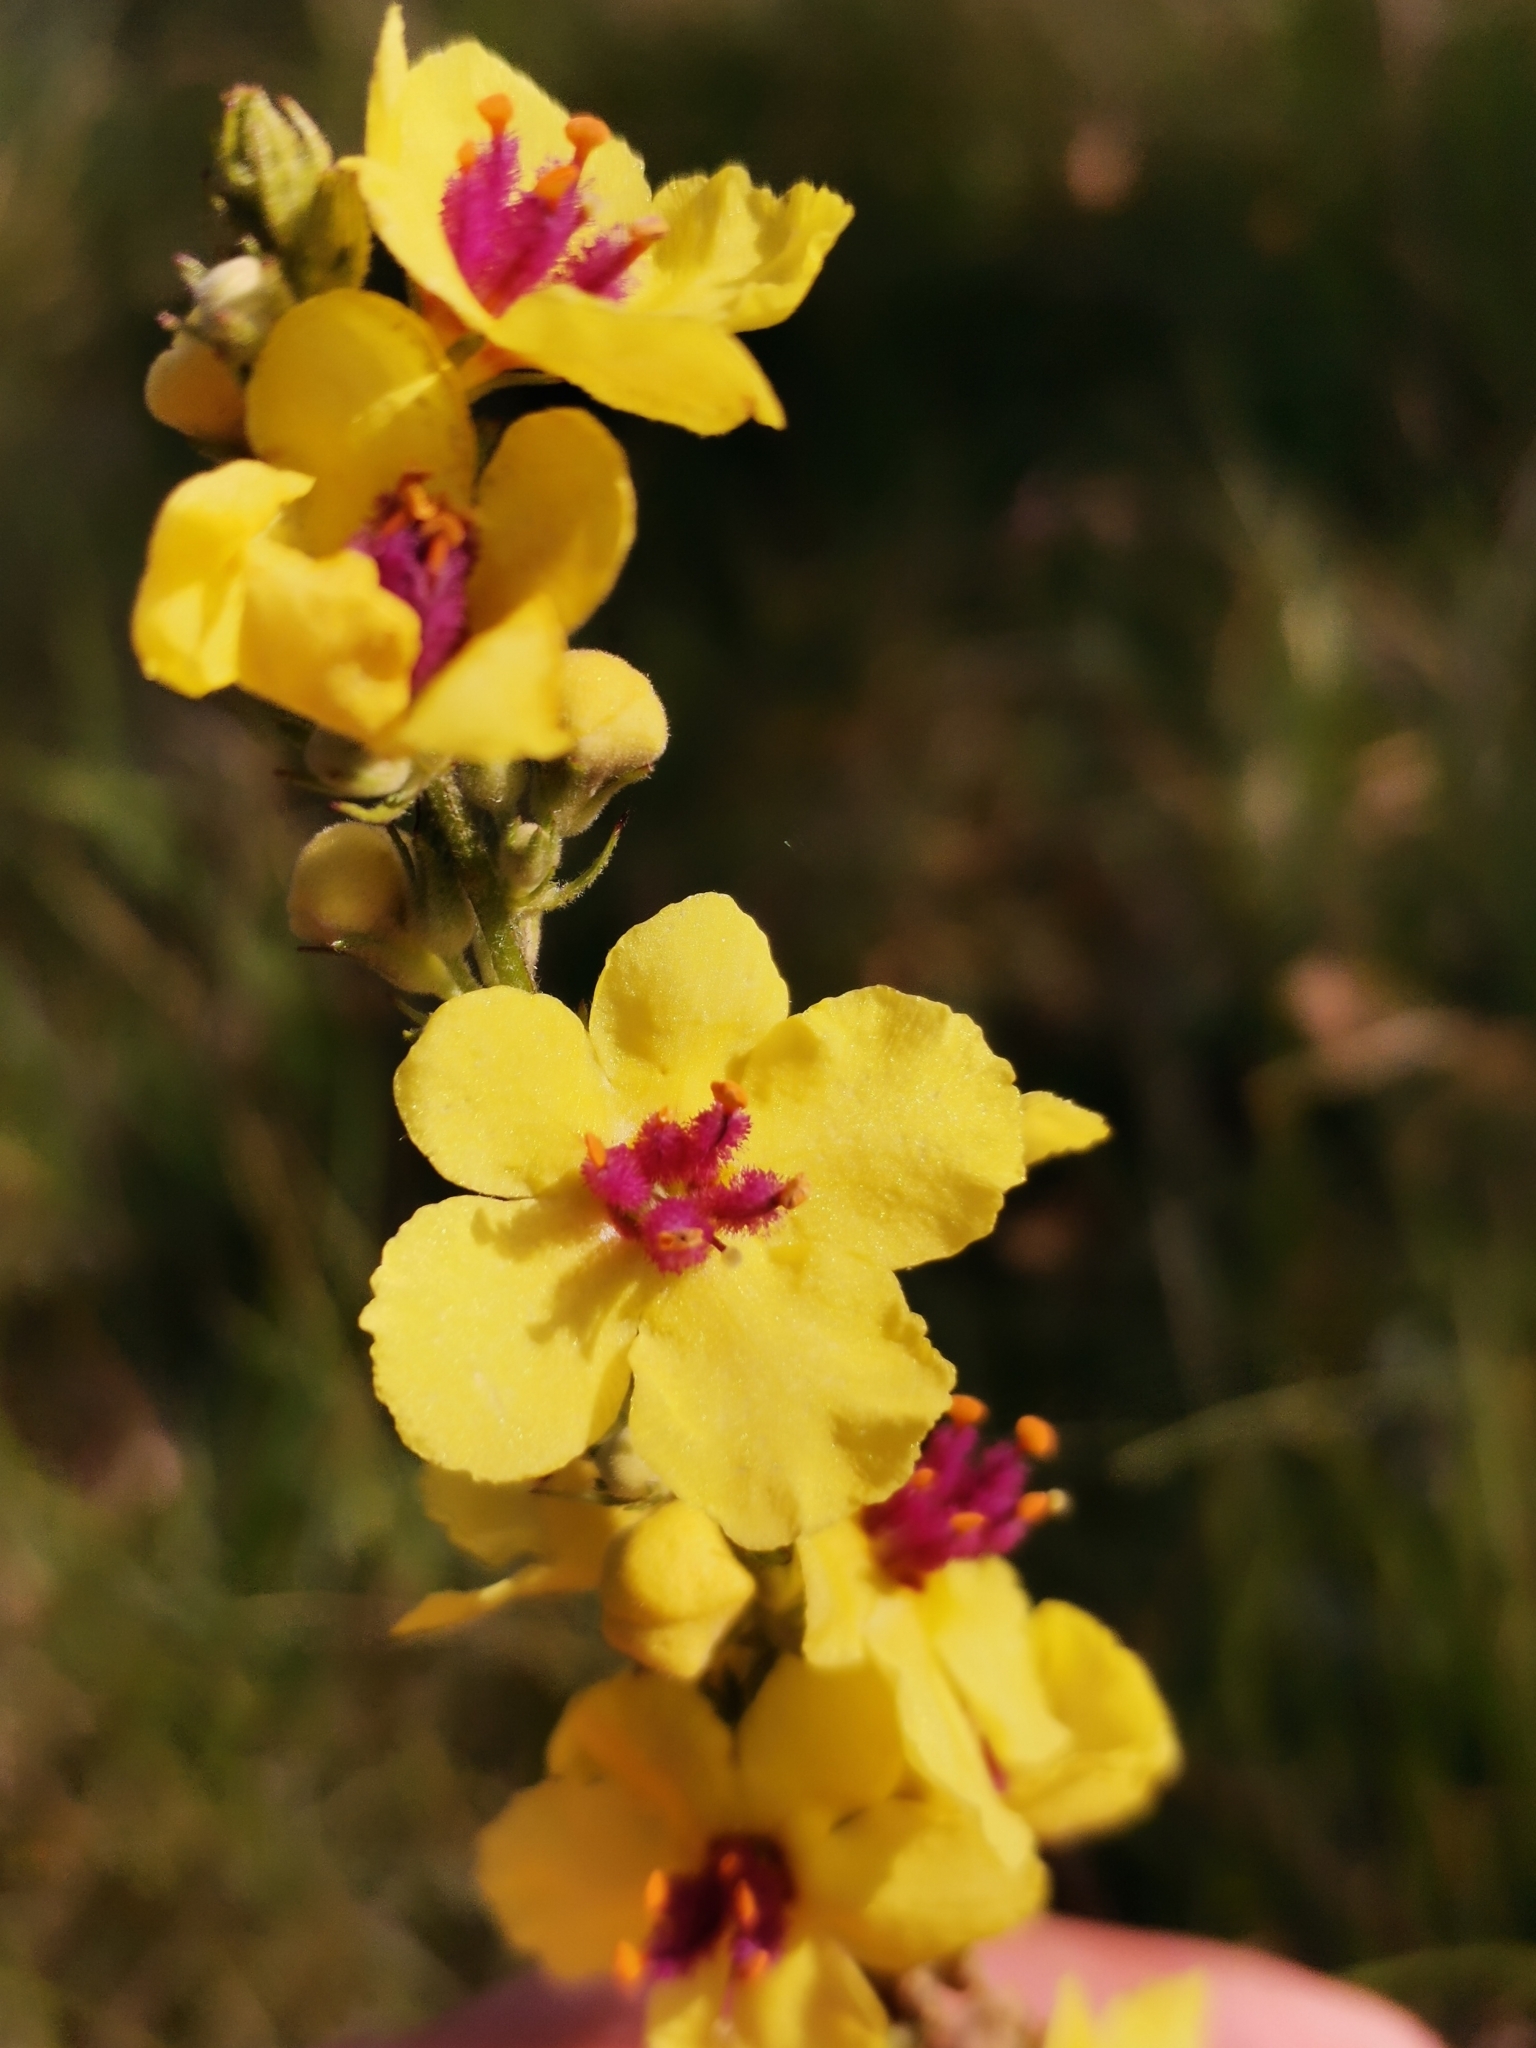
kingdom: Plantae
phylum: Tracheophyta
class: Magnoliopsida
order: Lamiales
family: Scrophulariaceae
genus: Verbascum
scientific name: Verbascum chaixii
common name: Nettle-leaved mullein
